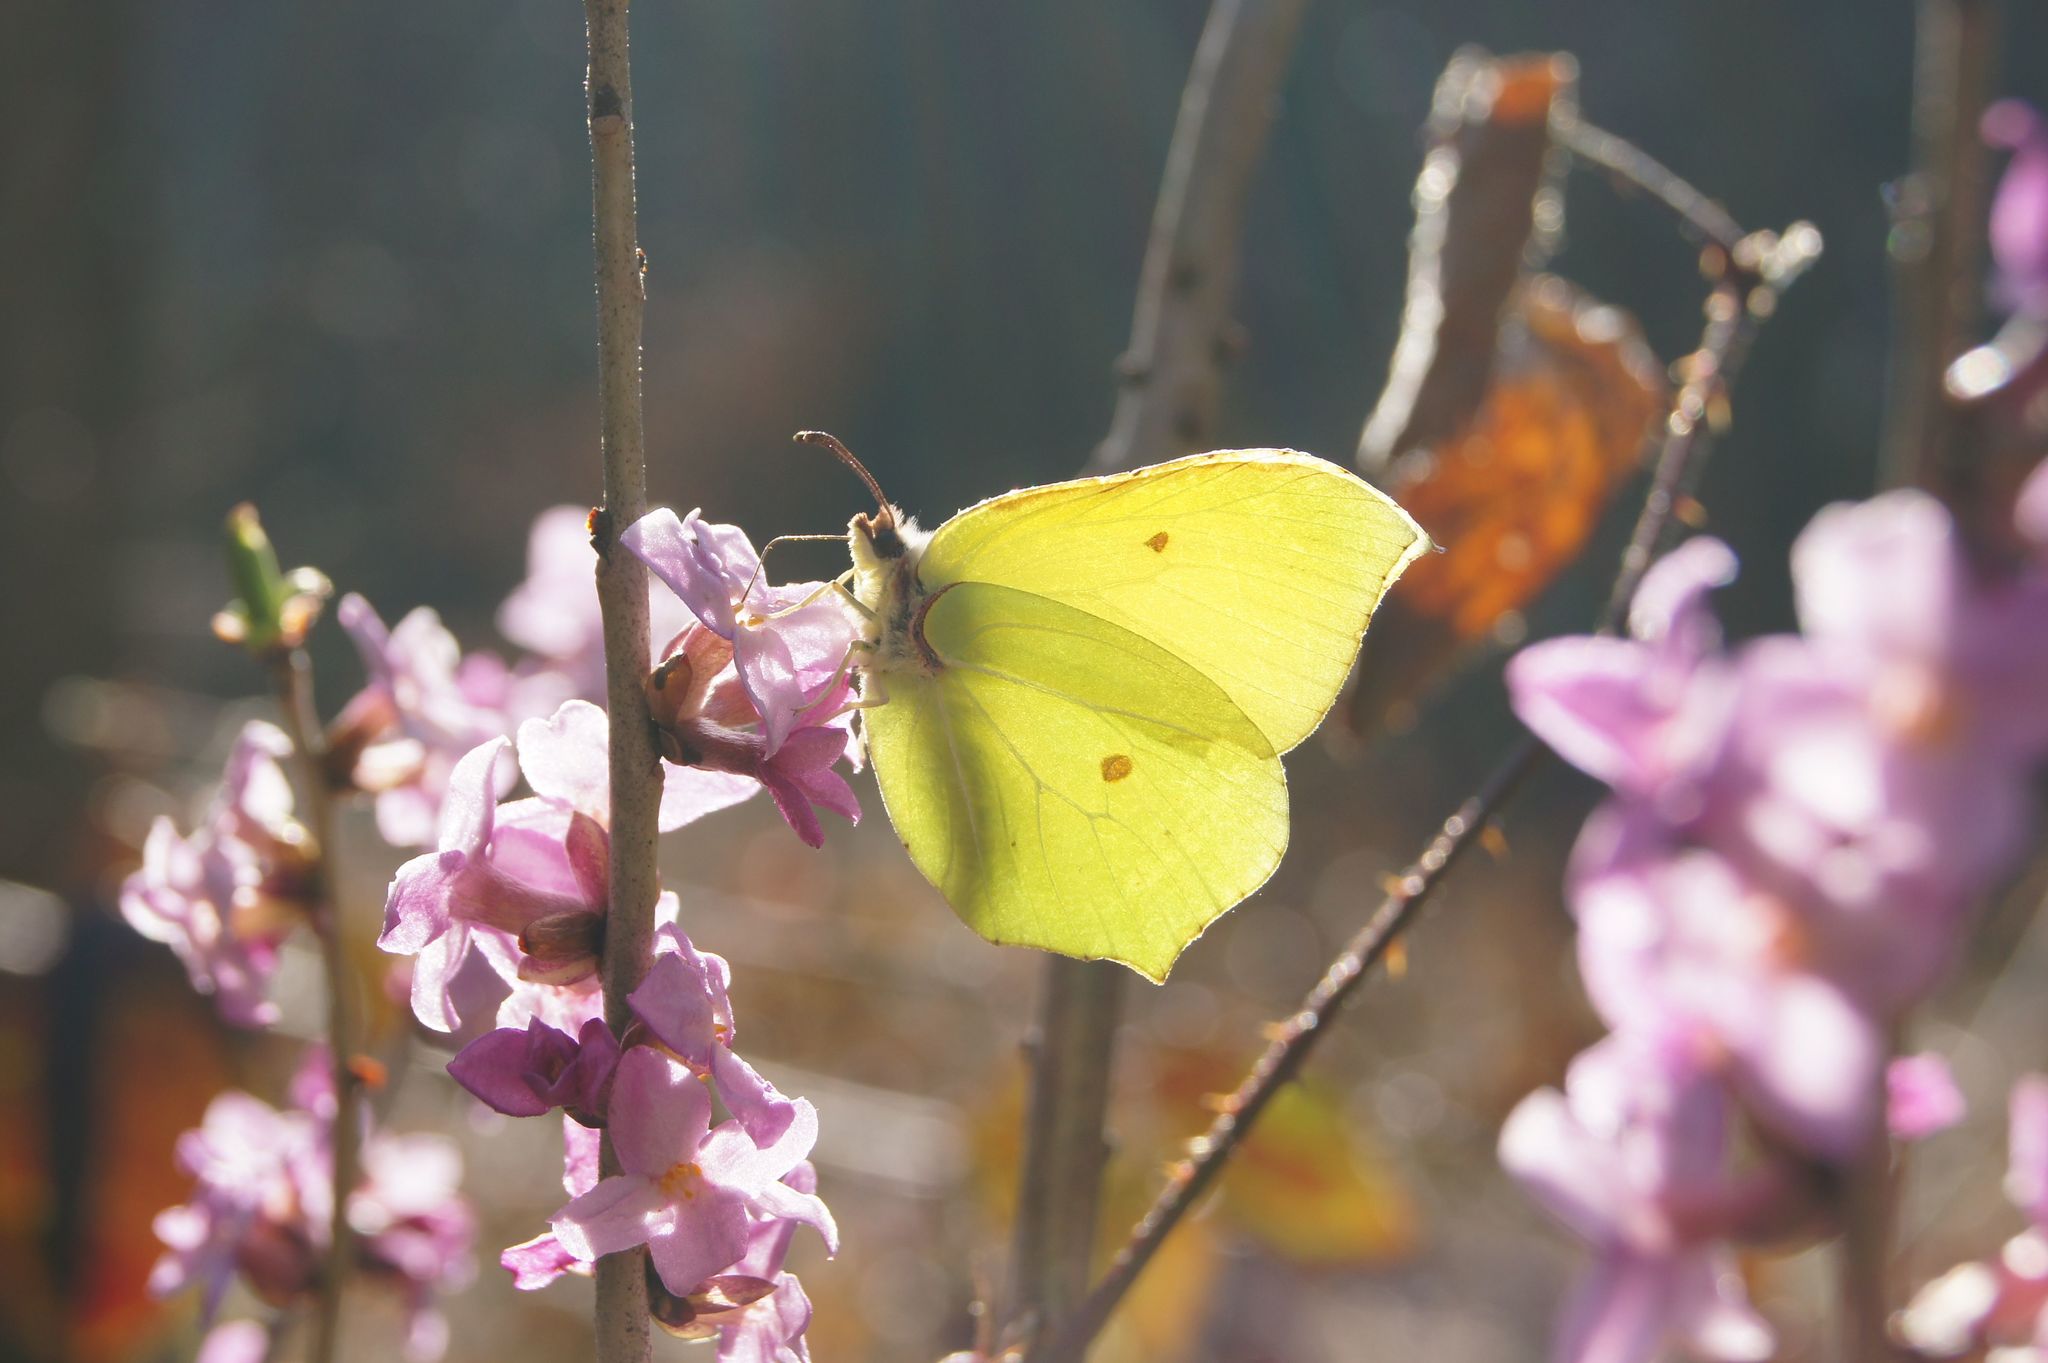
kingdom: Animalia
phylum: Arthropoda
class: Insecta
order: Lepidoptera
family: Pieridae
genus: Gonepteryx
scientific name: Gonepteryx rhamni
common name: Brimstone
